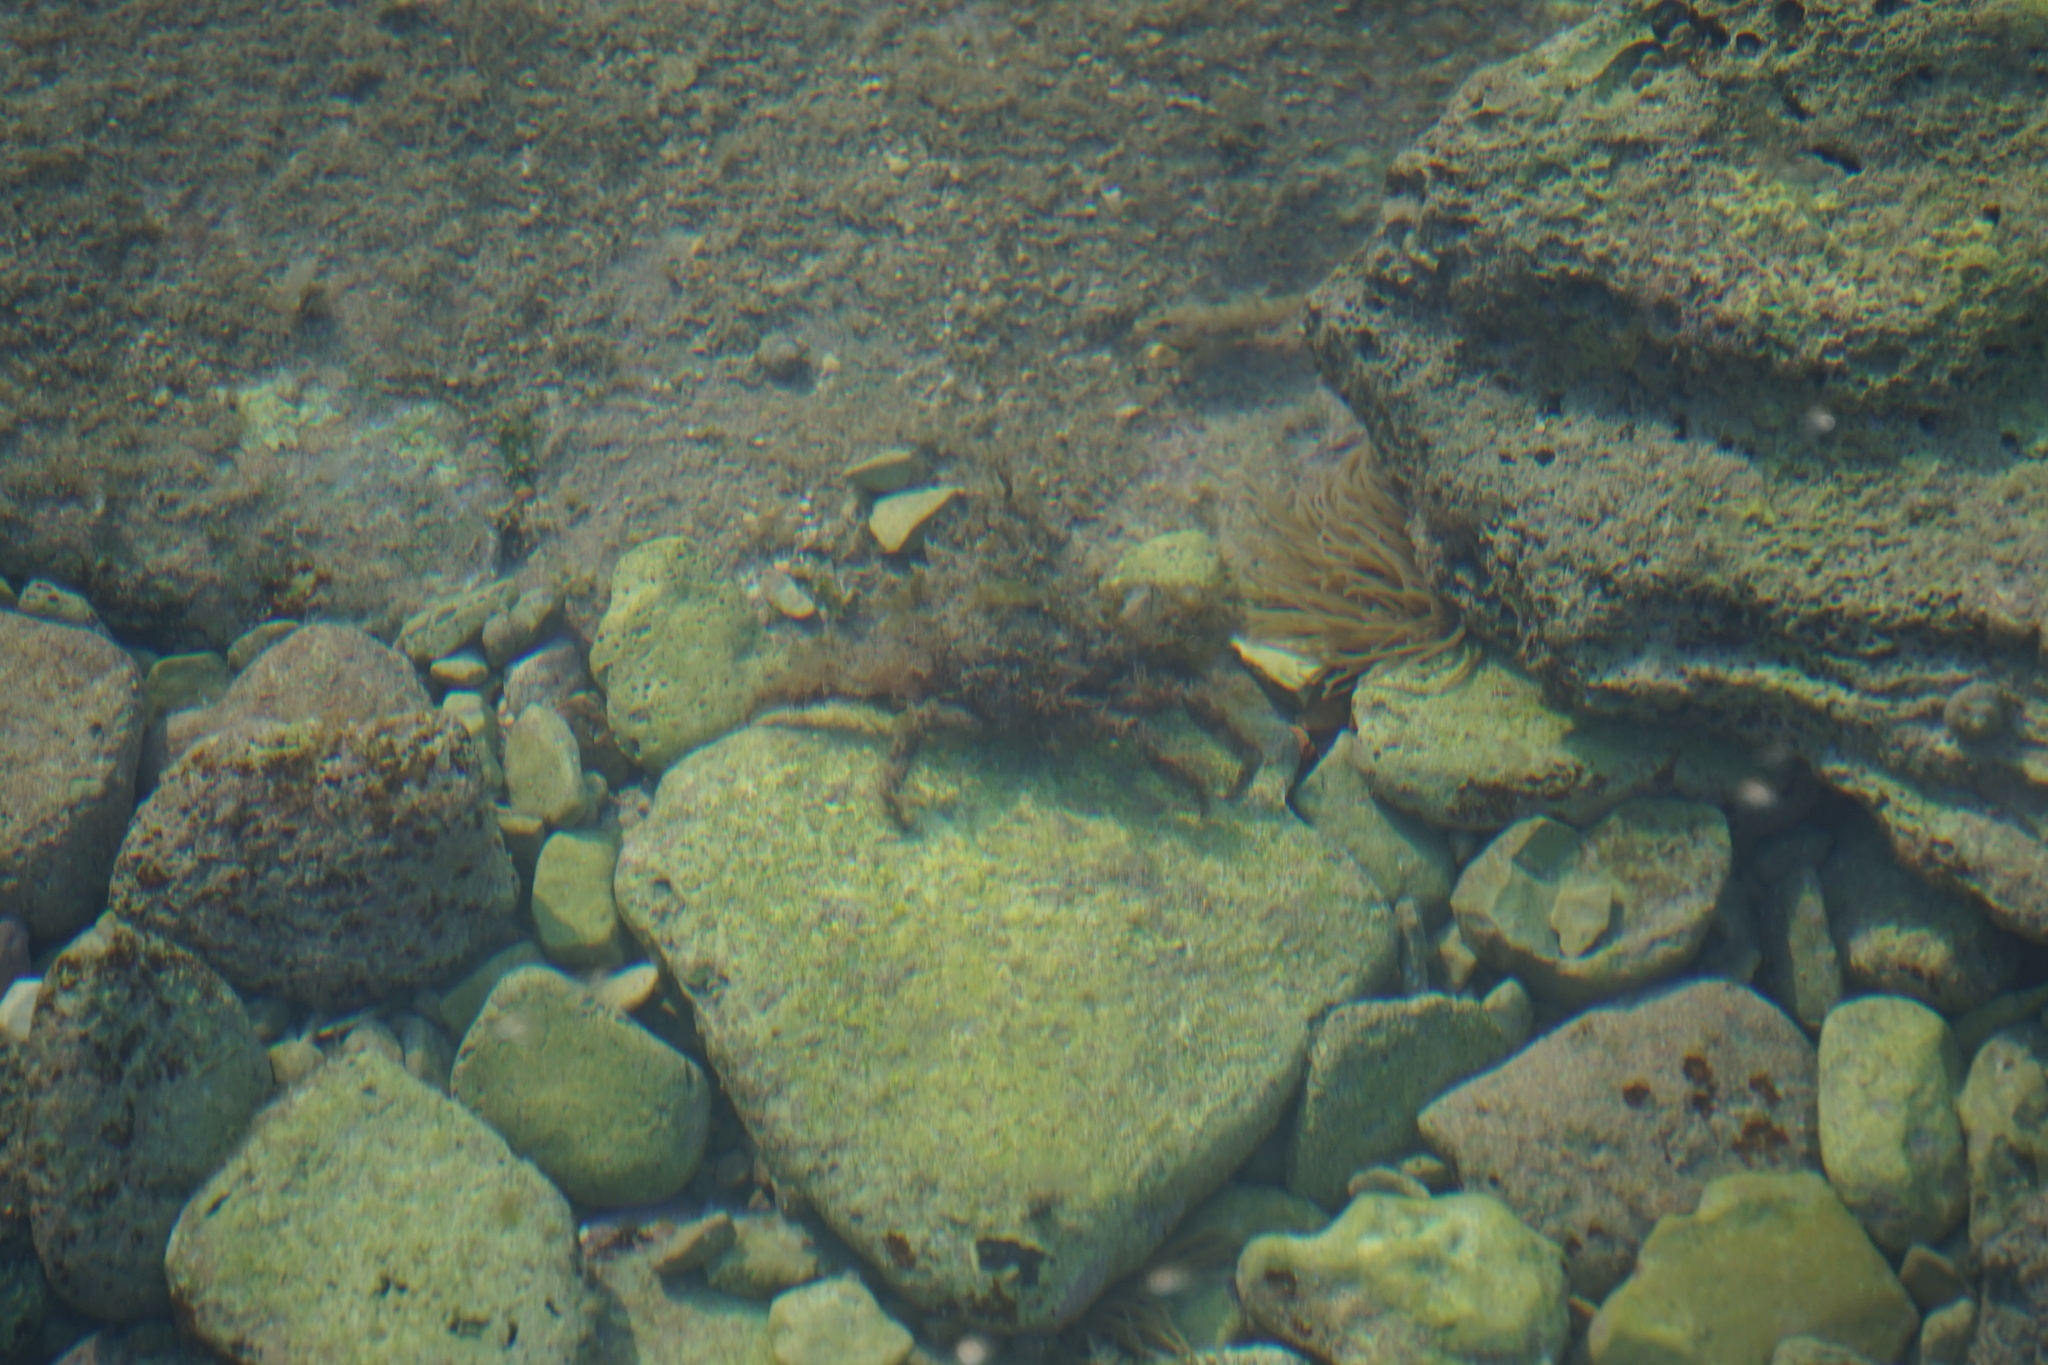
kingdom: Animalia
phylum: Arthropoda
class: Malacostraca
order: Decapoda
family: Majidae
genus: Maja
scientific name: Maja crispata
